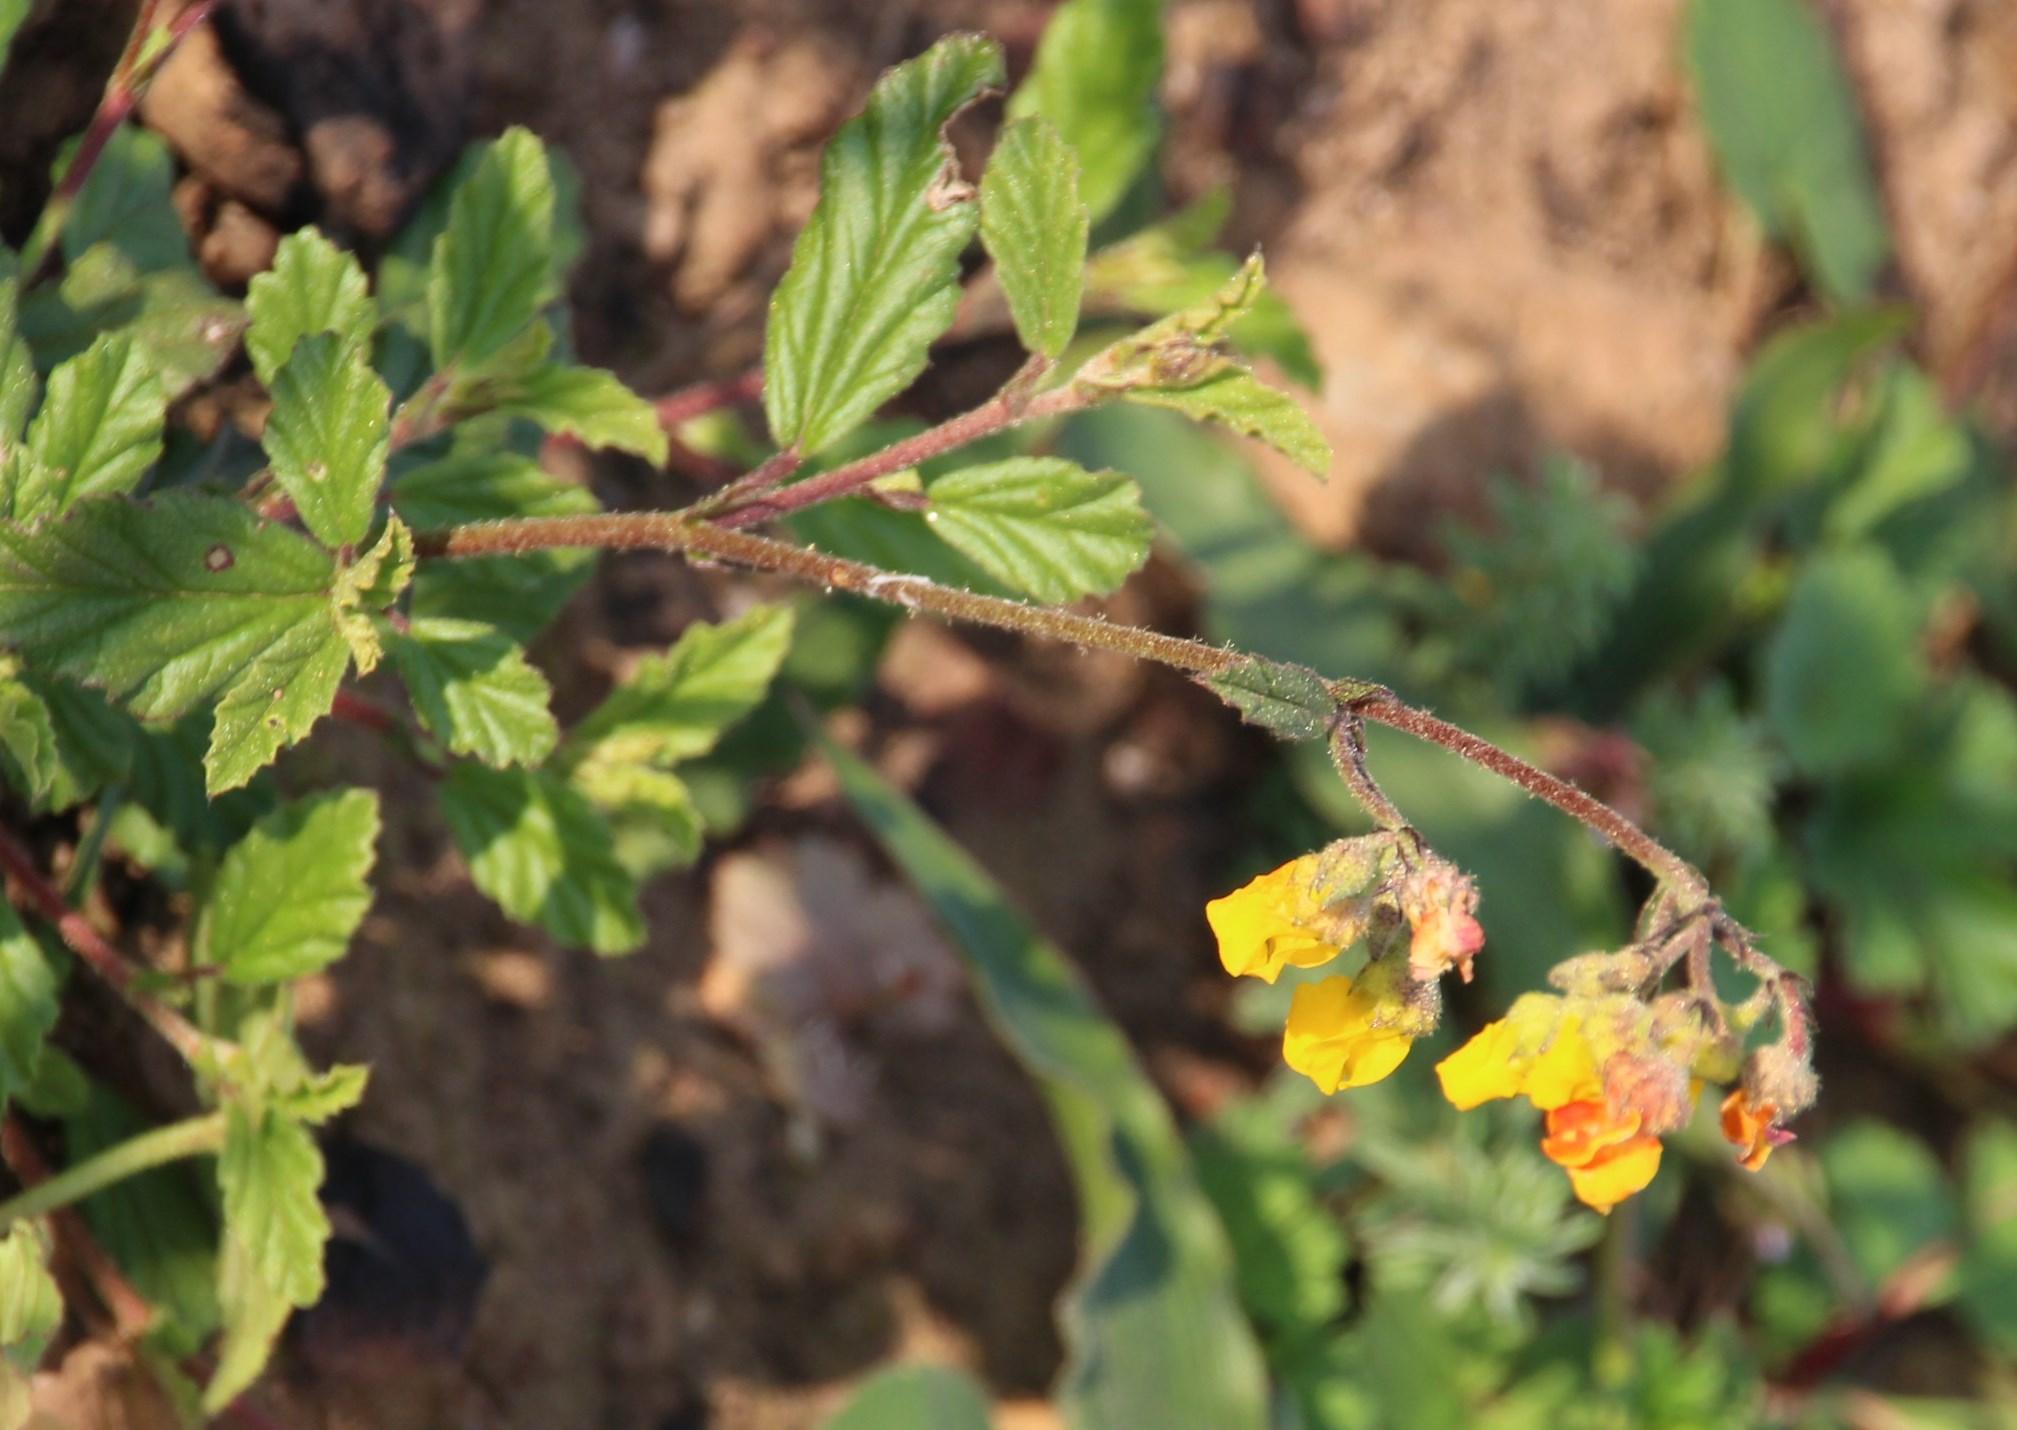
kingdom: Plantae
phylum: Tracheophyta
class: Magnoliopsida
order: Malvales
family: Malvaceae
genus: Hermannia
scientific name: Hermannia alnifolia
